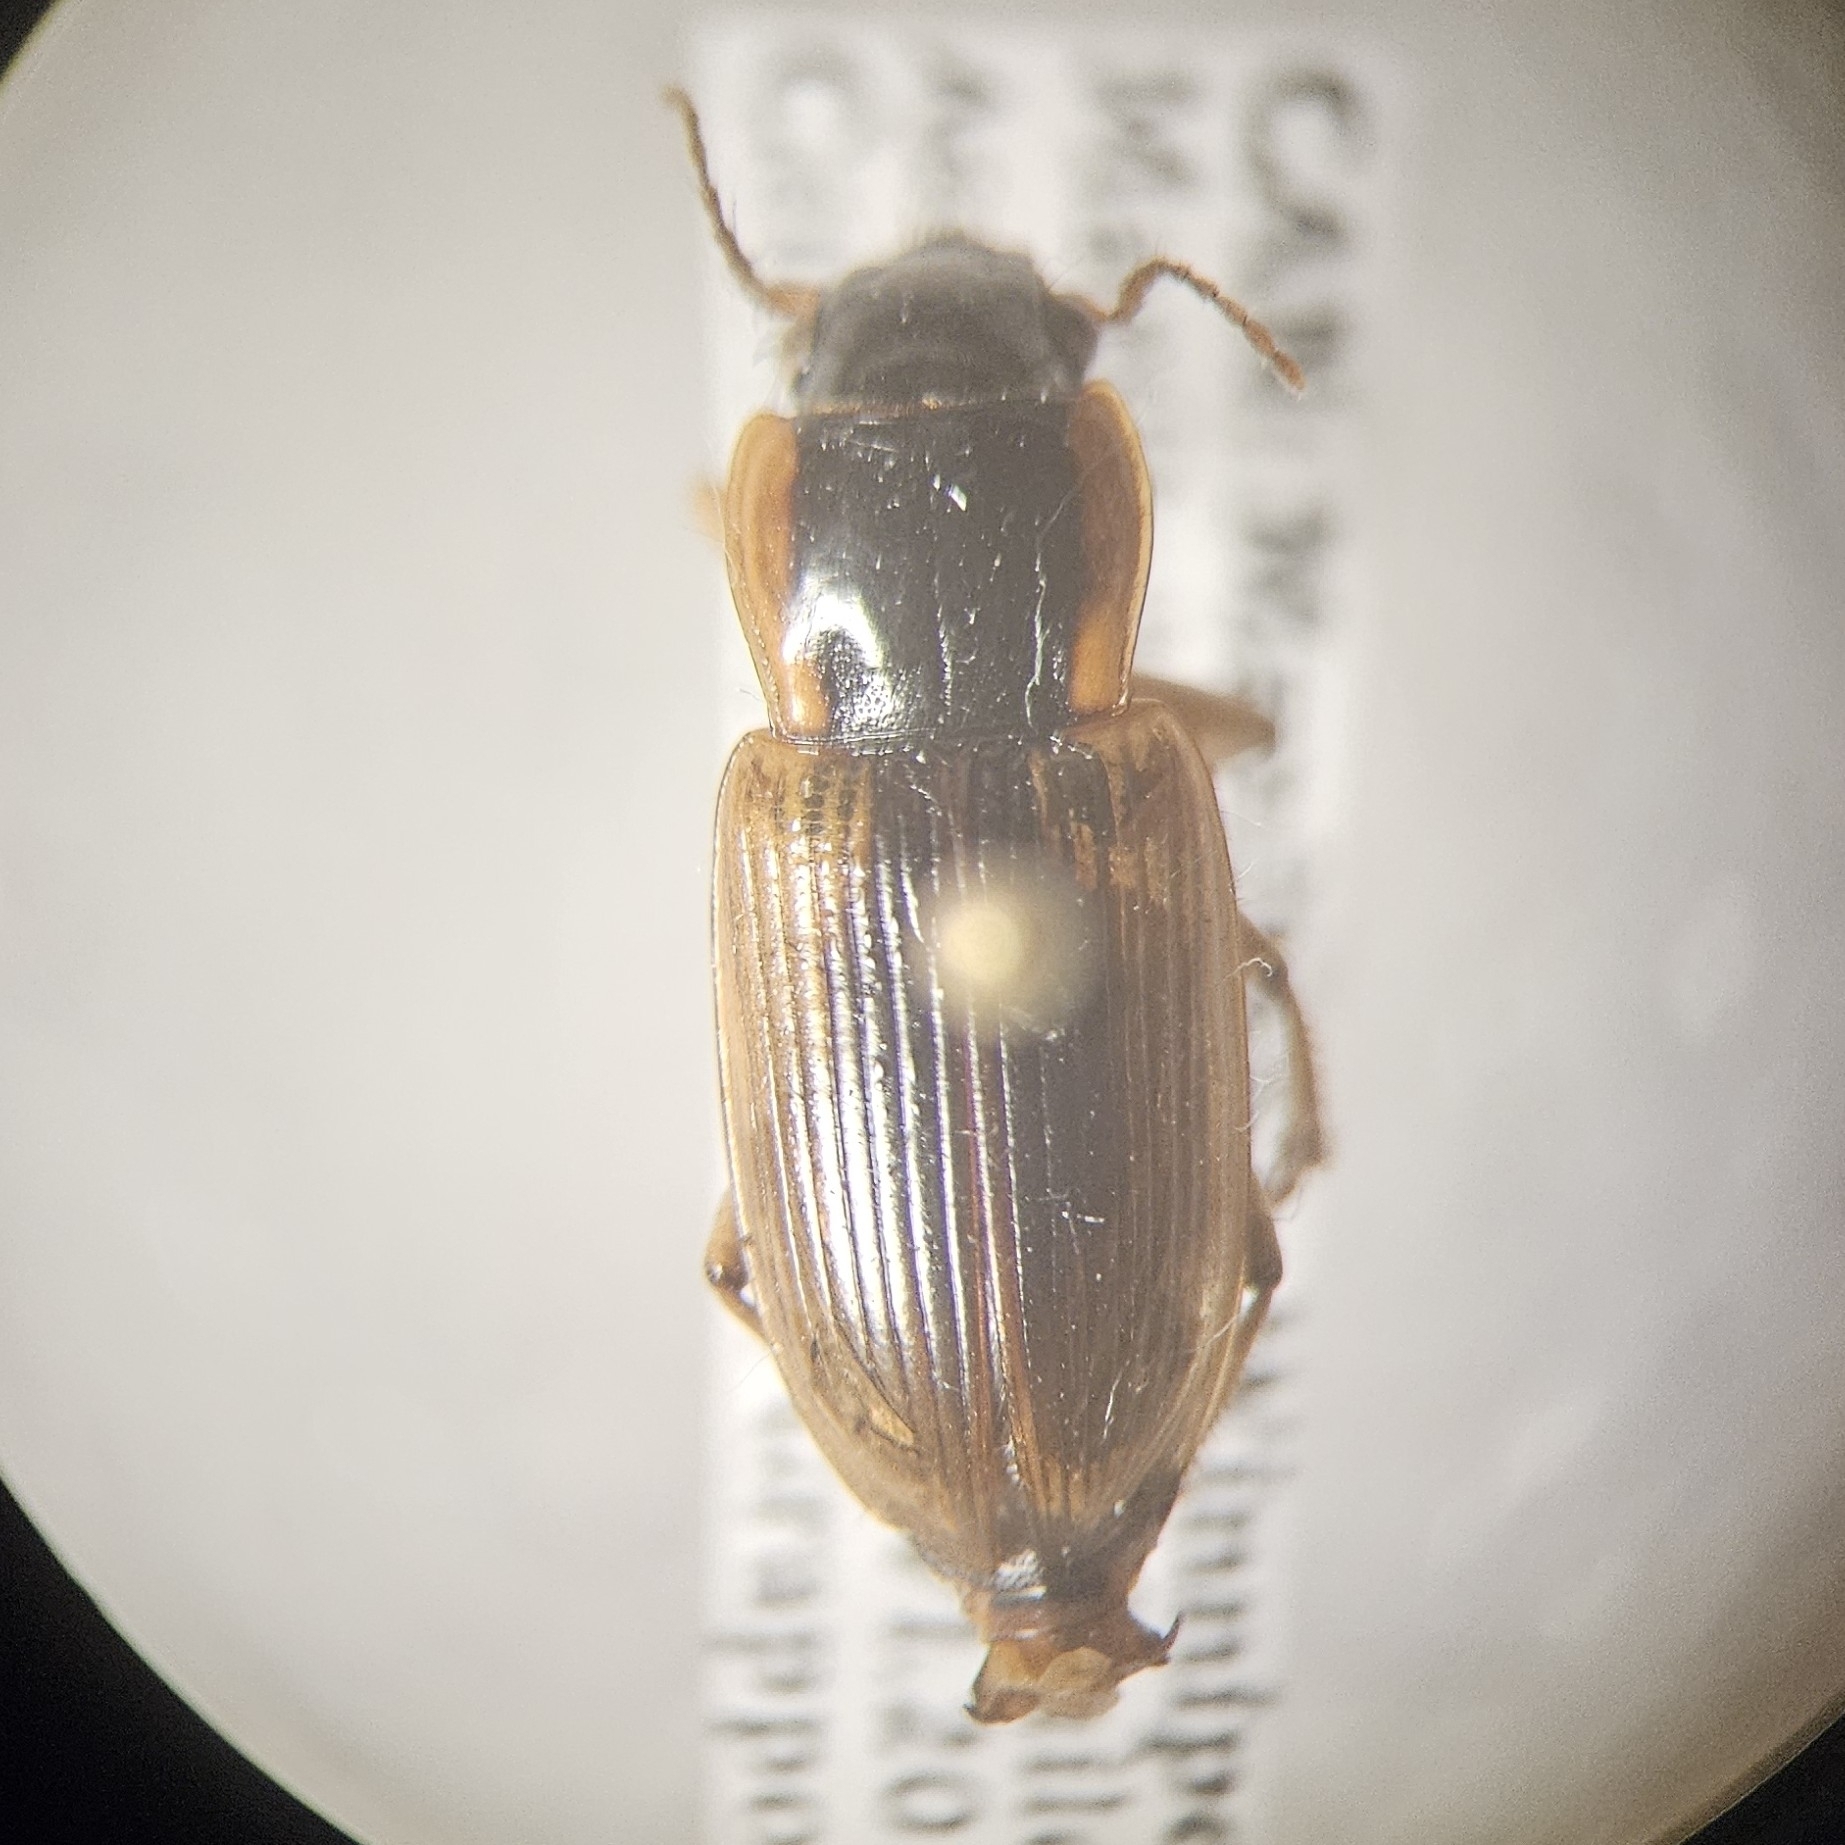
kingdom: Animalia
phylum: Arthropoda
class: Insecta
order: Coleoptera
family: Carabidae
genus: Anisodactylus
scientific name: Anisodactylus discoideus
